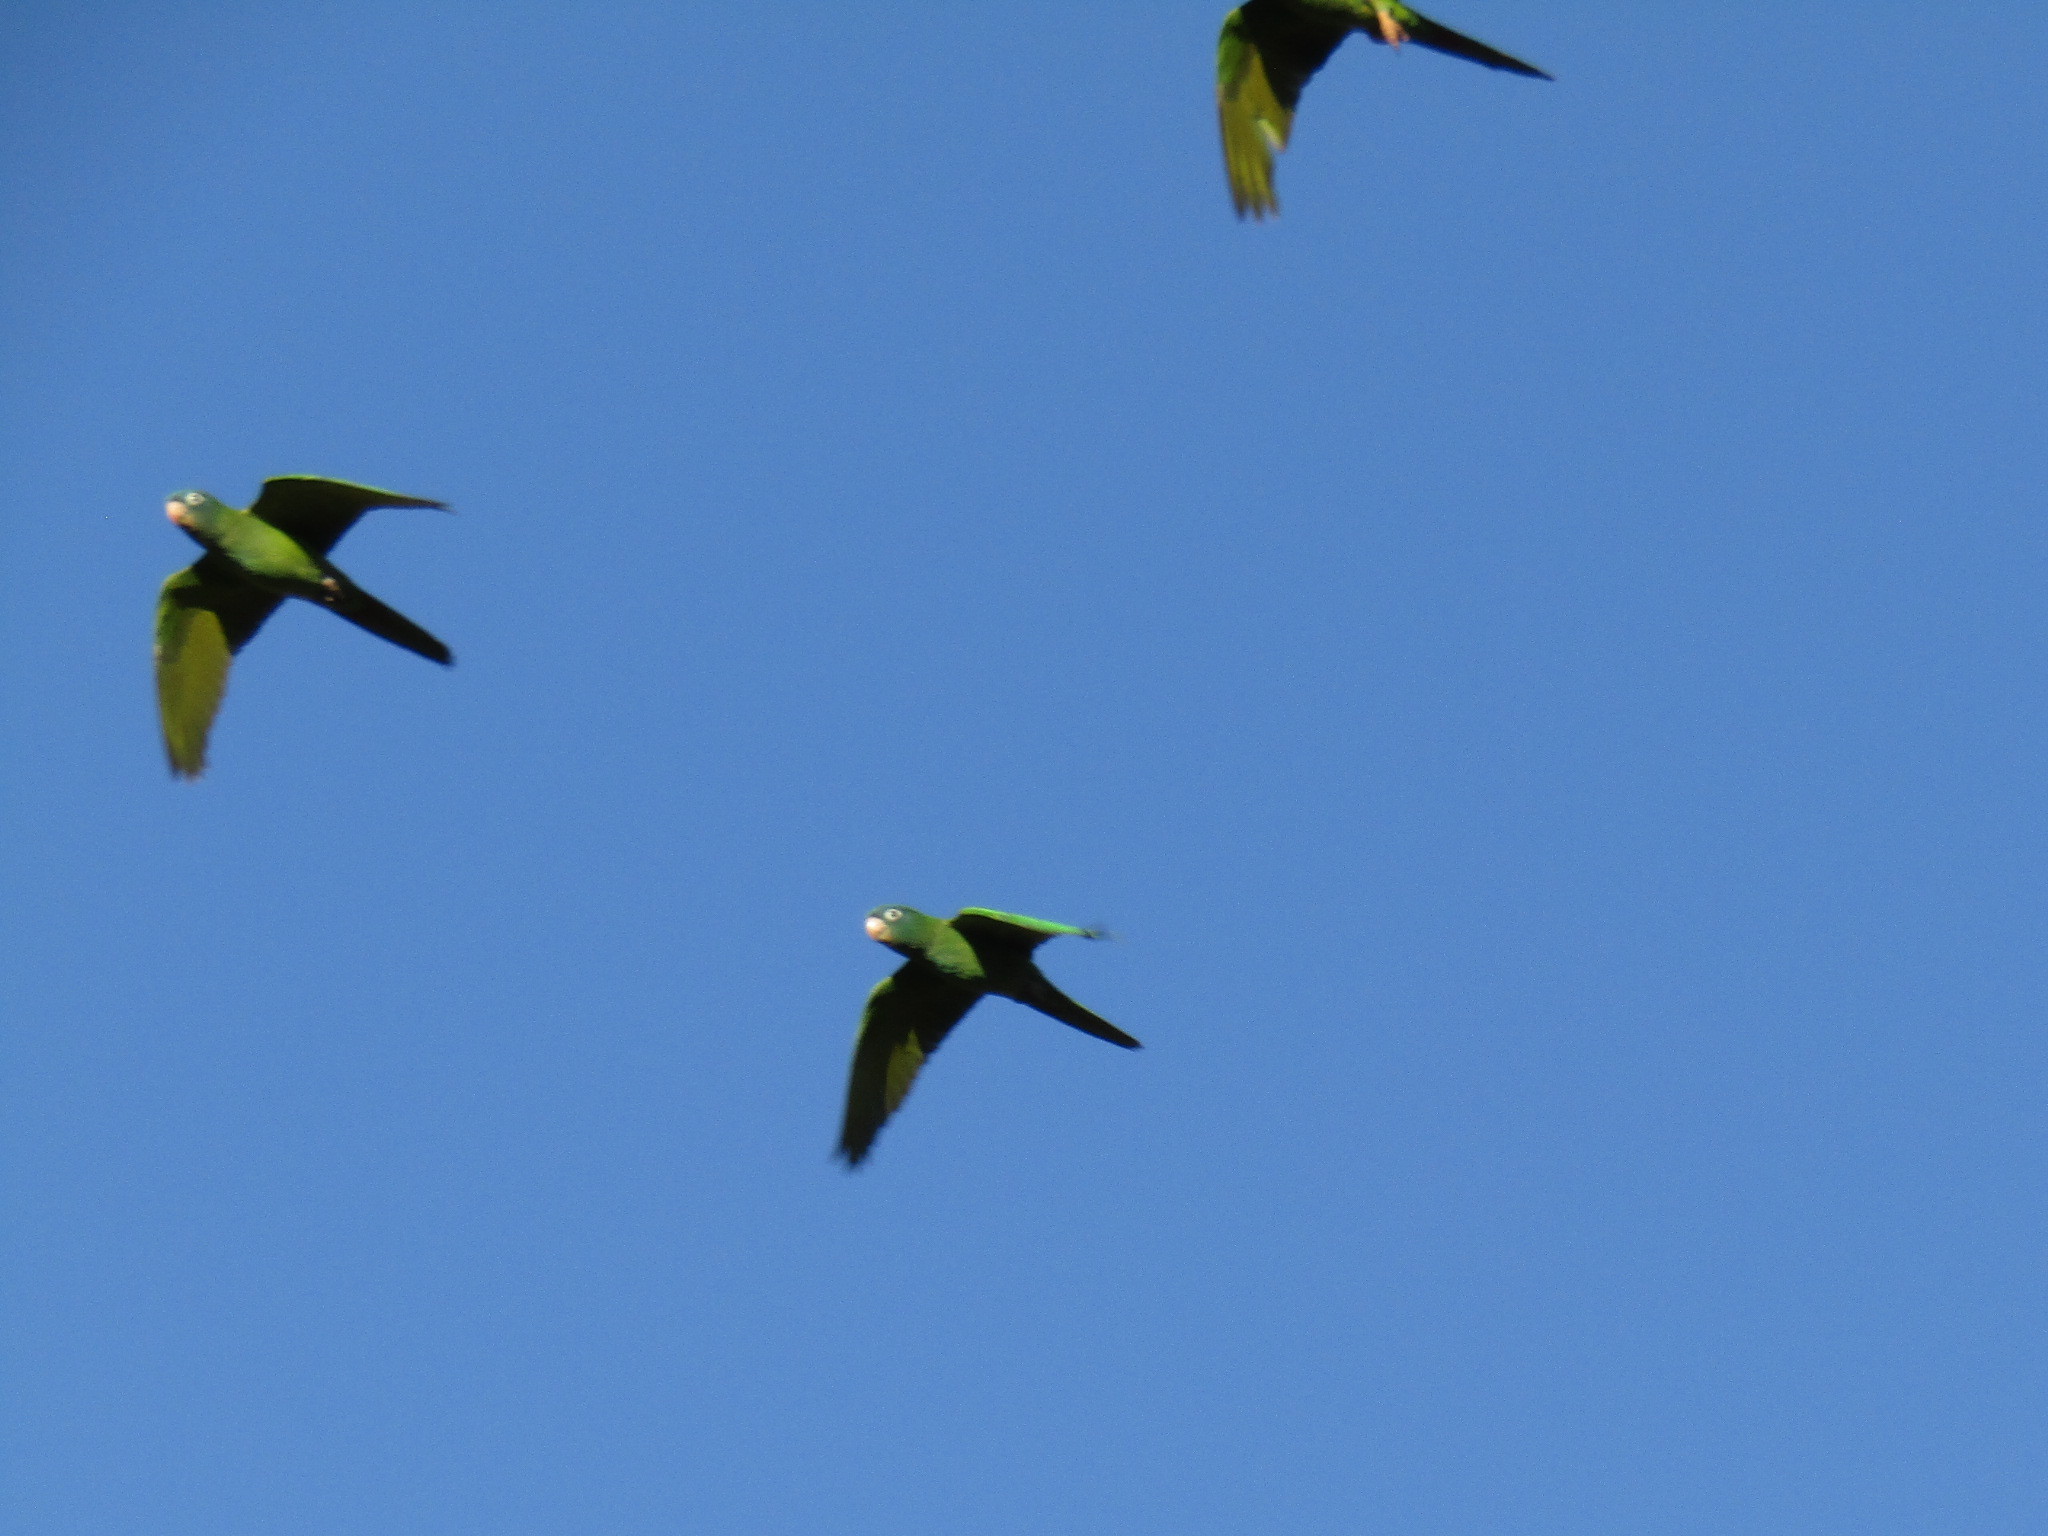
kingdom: Animalia
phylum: Chordata
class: Aves
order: Psittaciformes
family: Psittacidae
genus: Aratinga
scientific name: Aratinga acuticaudata
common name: Blue-crowned parakeet
